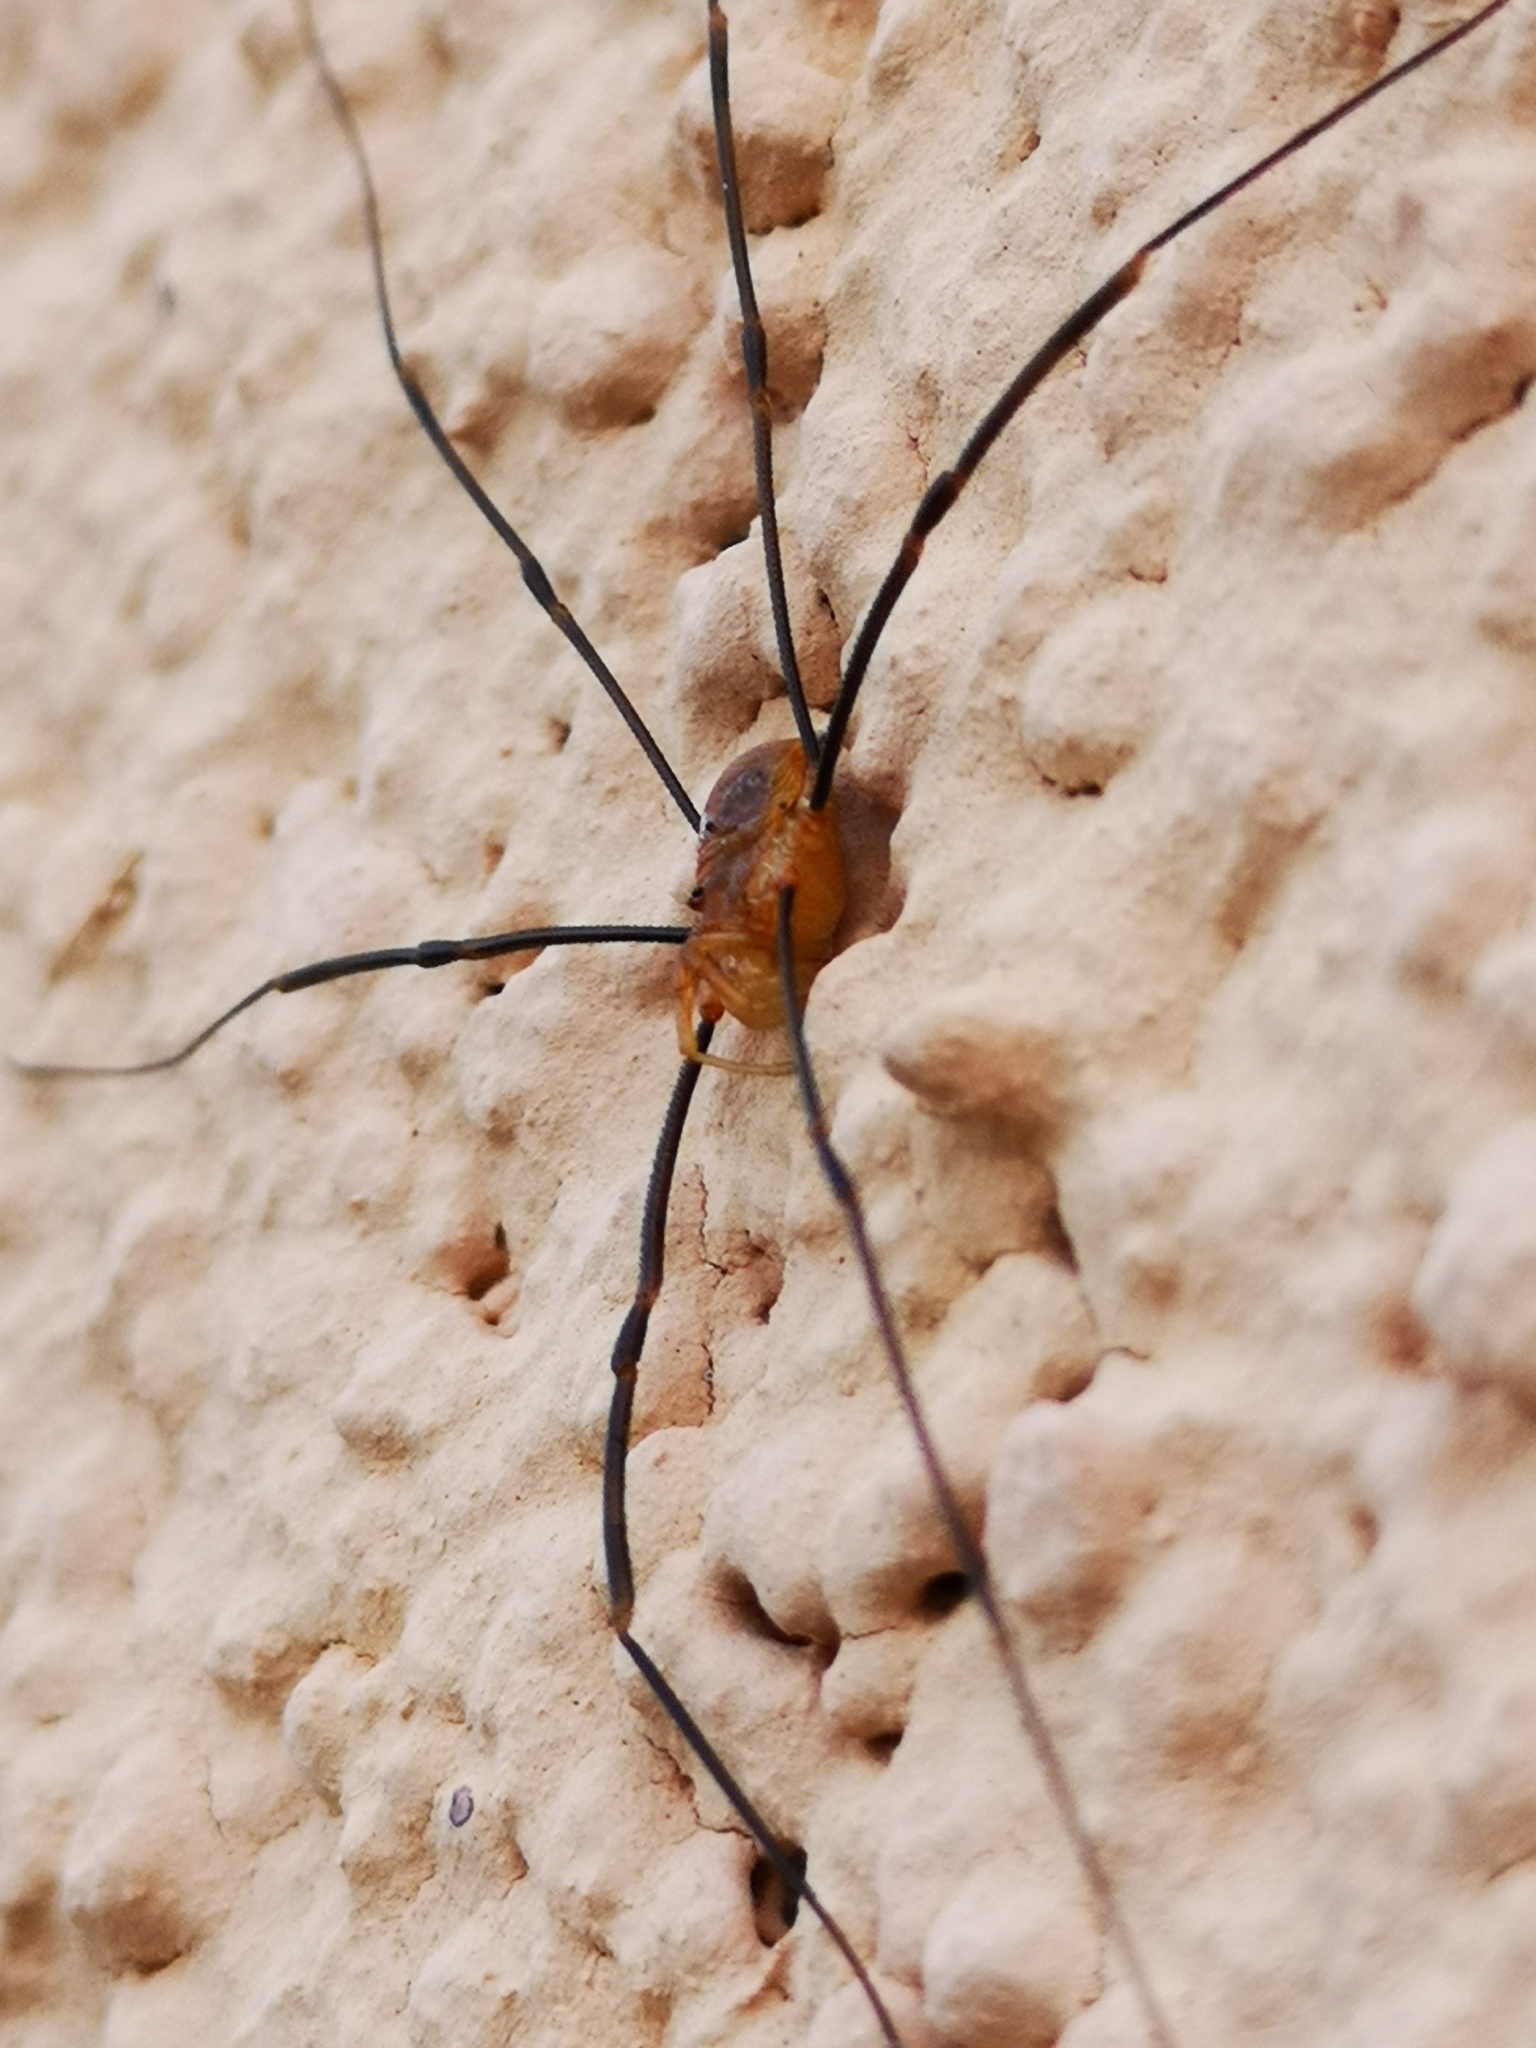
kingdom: Animalia
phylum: Arthropoda
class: Arachnida
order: Opiliones
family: Phalangiidae
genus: Opilio
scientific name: Opilio canestrinii
